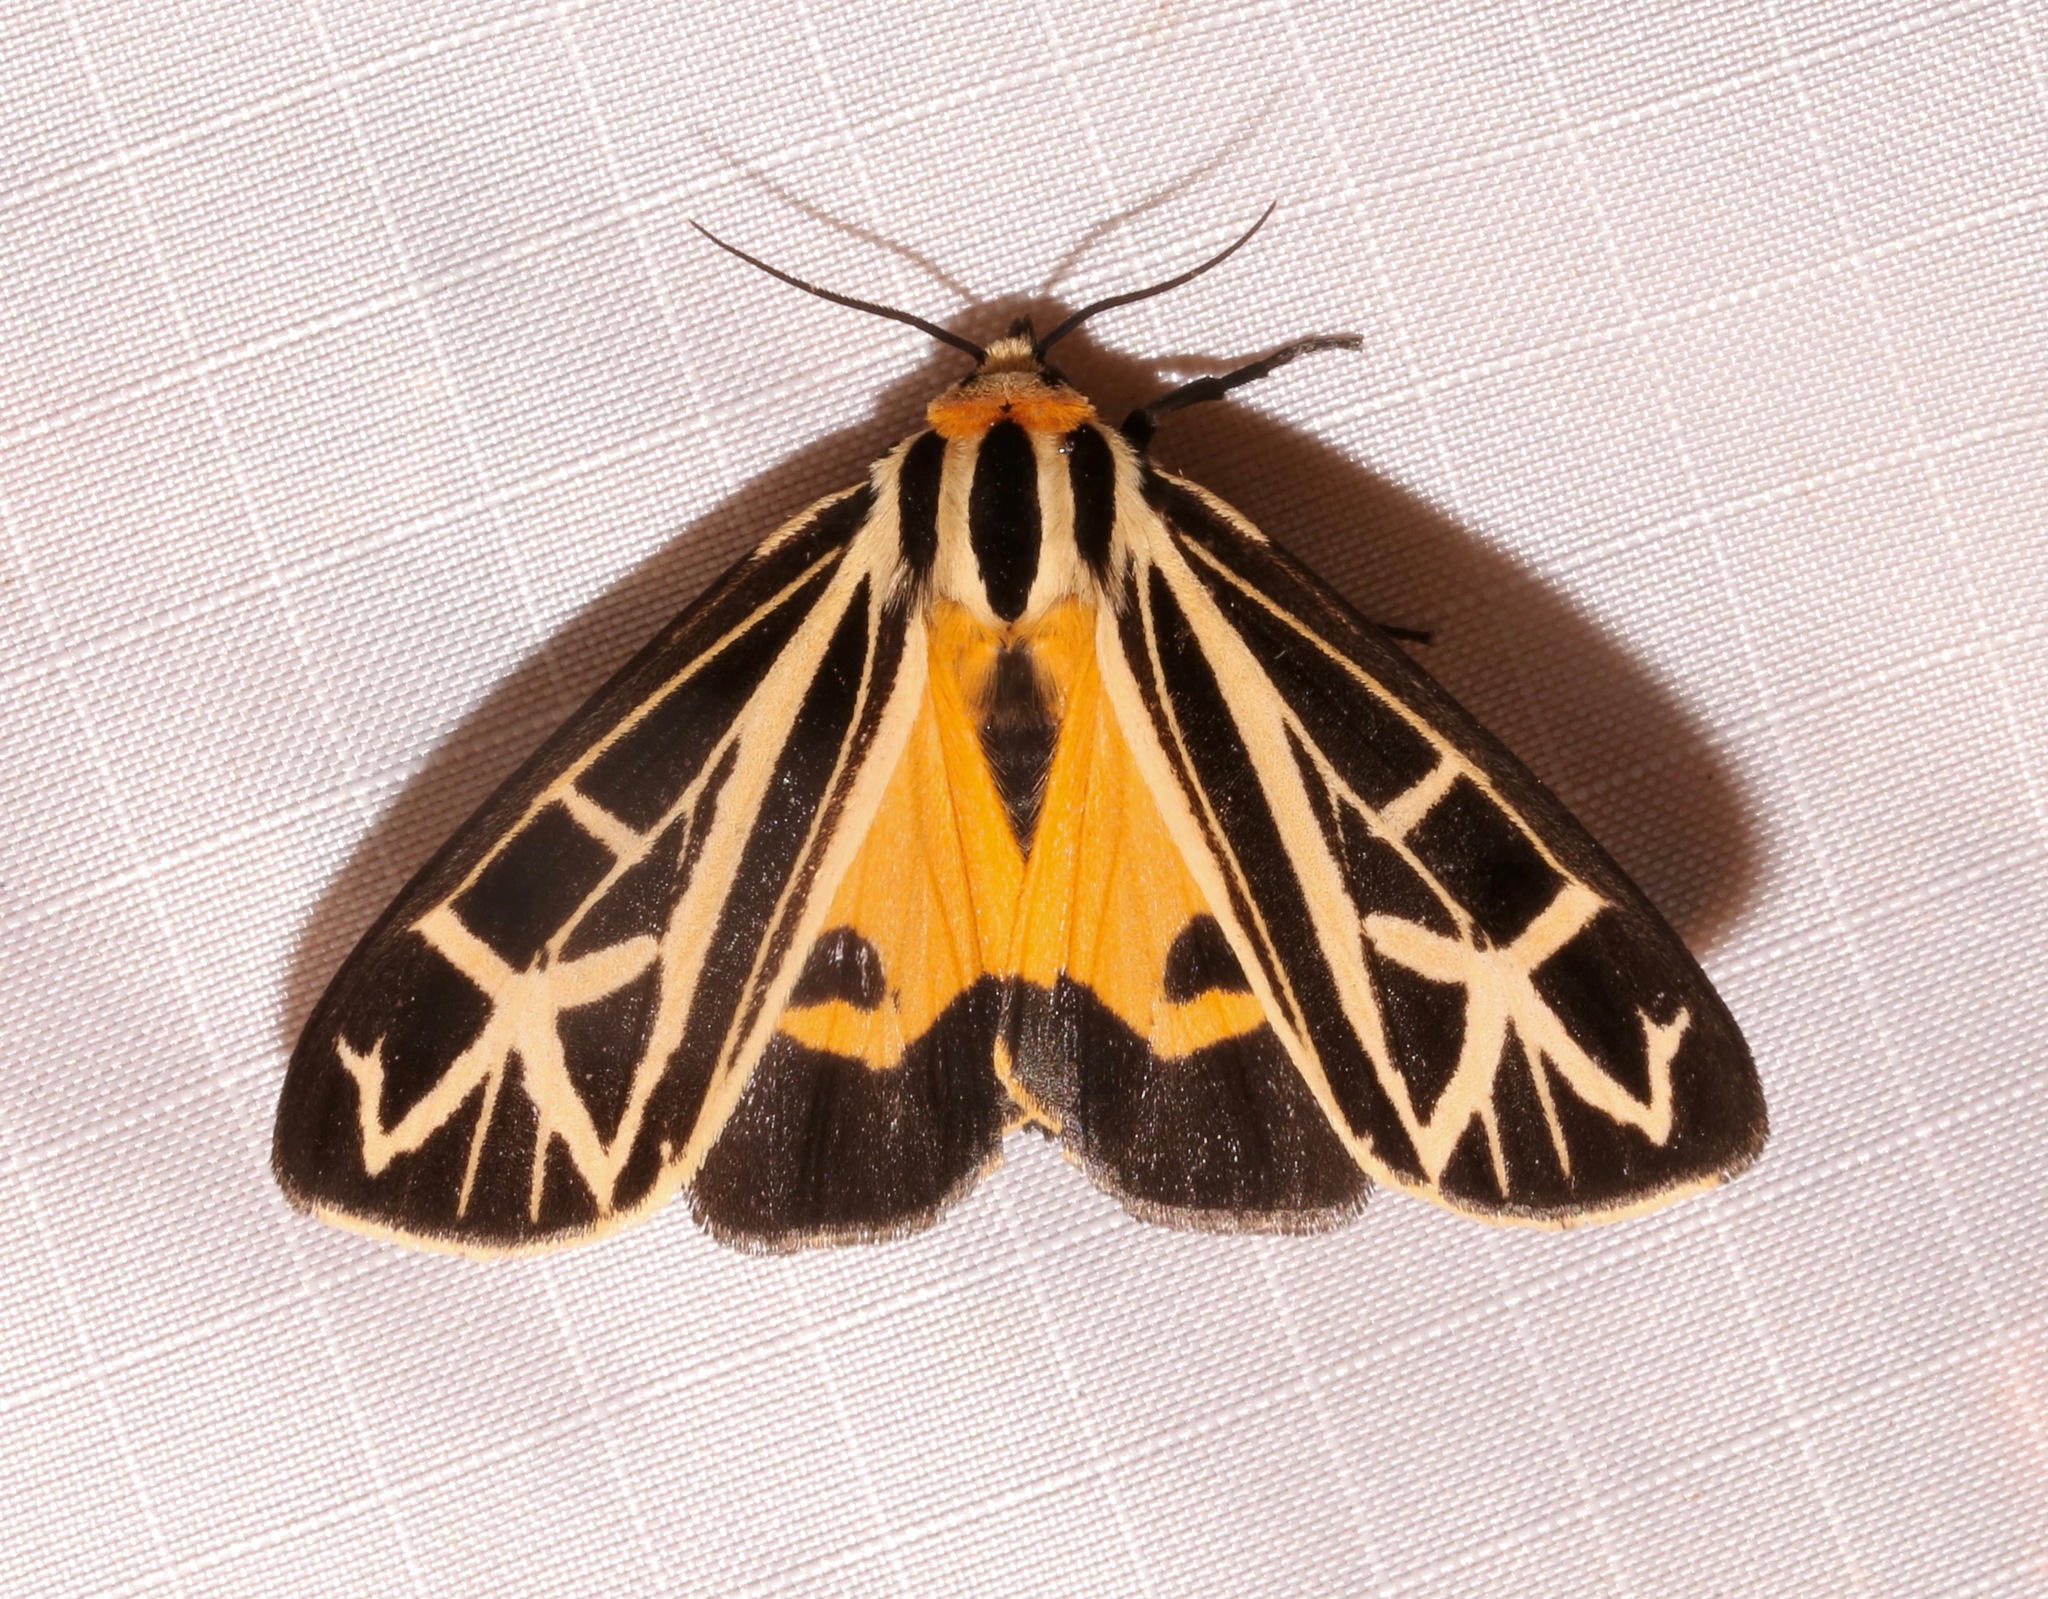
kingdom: Animalia
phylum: Arthropoda
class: Insecta
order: Lepidoptera
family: Erebidae
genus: Apantesis
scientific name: Apantesis
